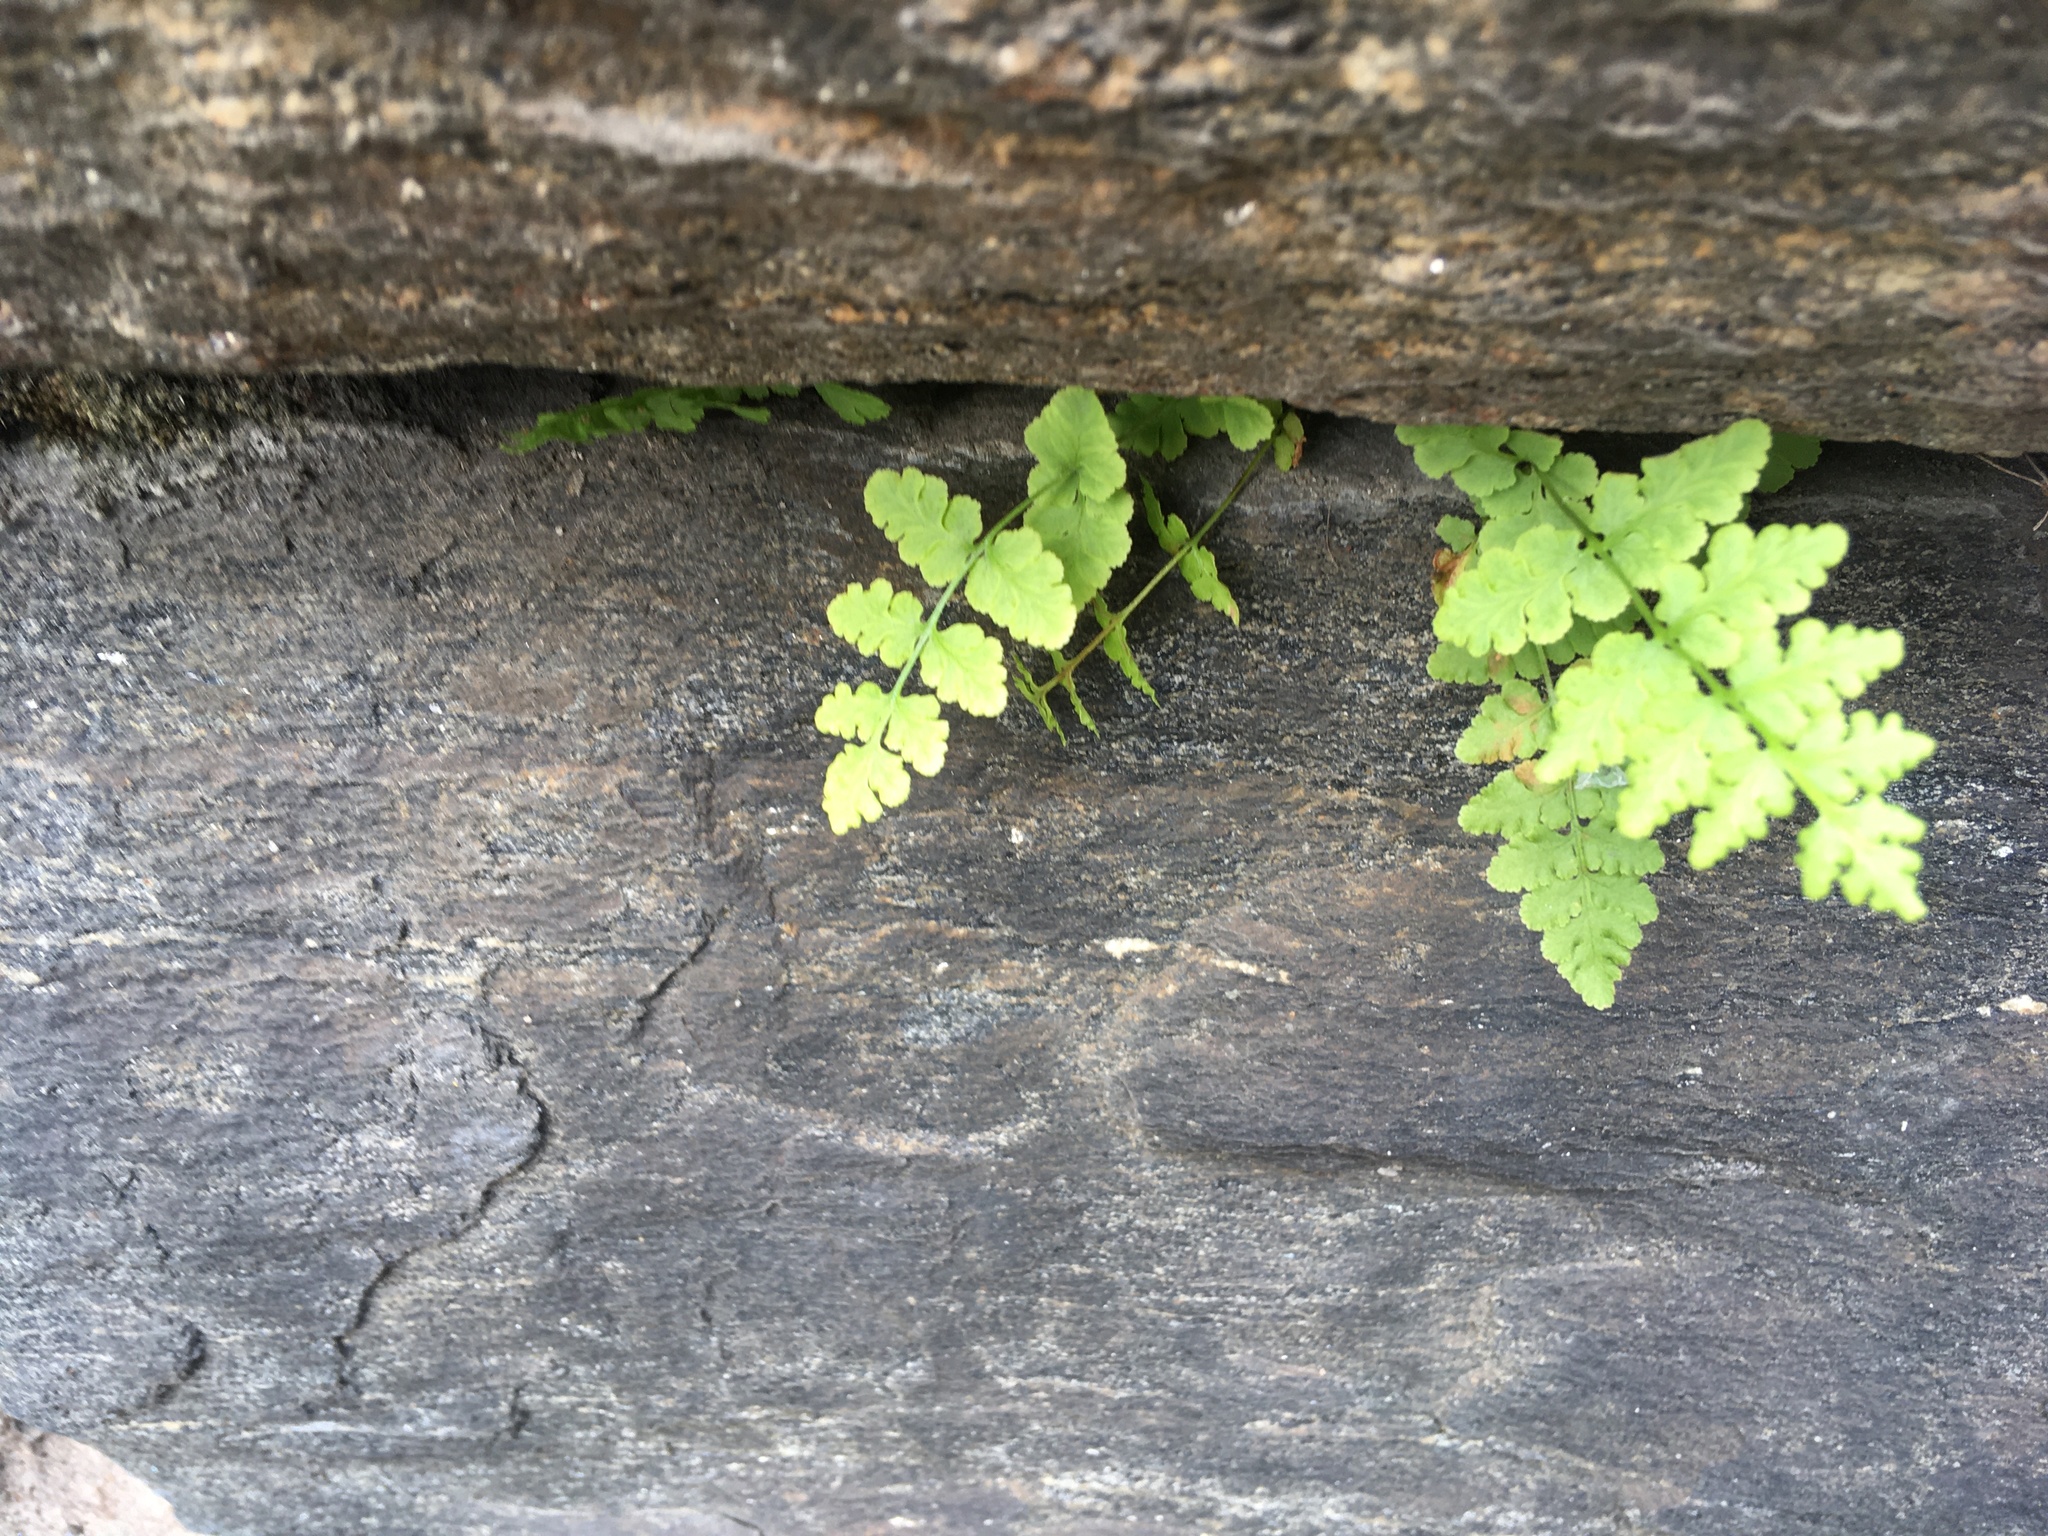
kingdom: Plantae
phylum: Tracheophyta
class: Polypodiopsida
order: Polypodiales
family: Woodsiaceae
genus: Physematium
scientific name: Physematium obtusum
